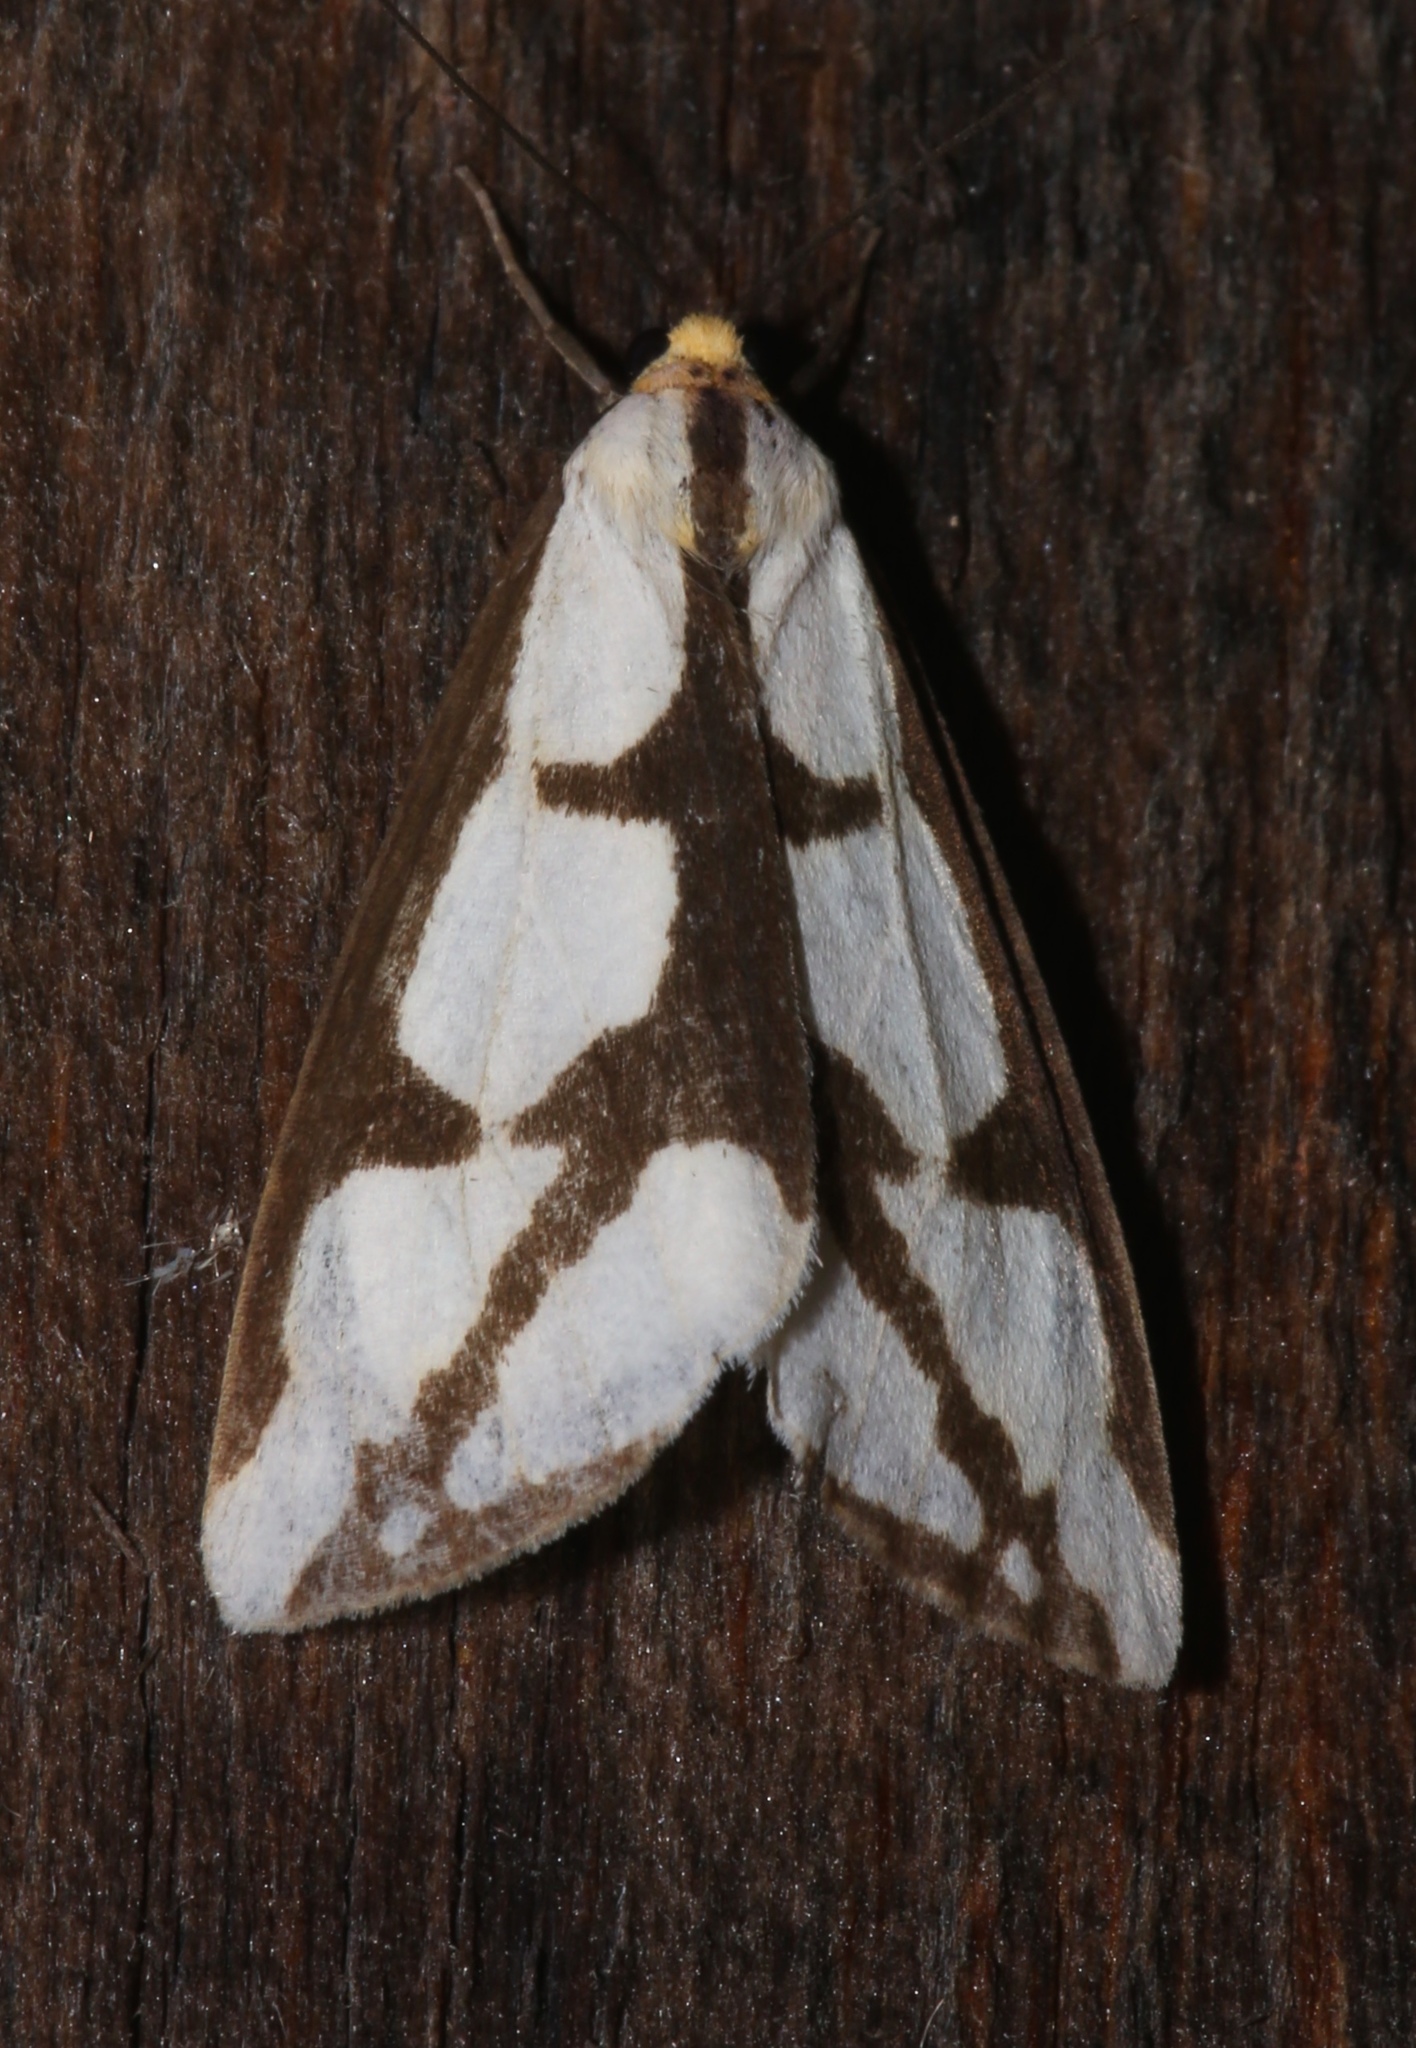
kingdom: Animalia
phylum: Arthropoda
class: Insecta
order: Lepidoptera
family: Erebidae
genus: Haploa
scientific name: Haploa lecontei
